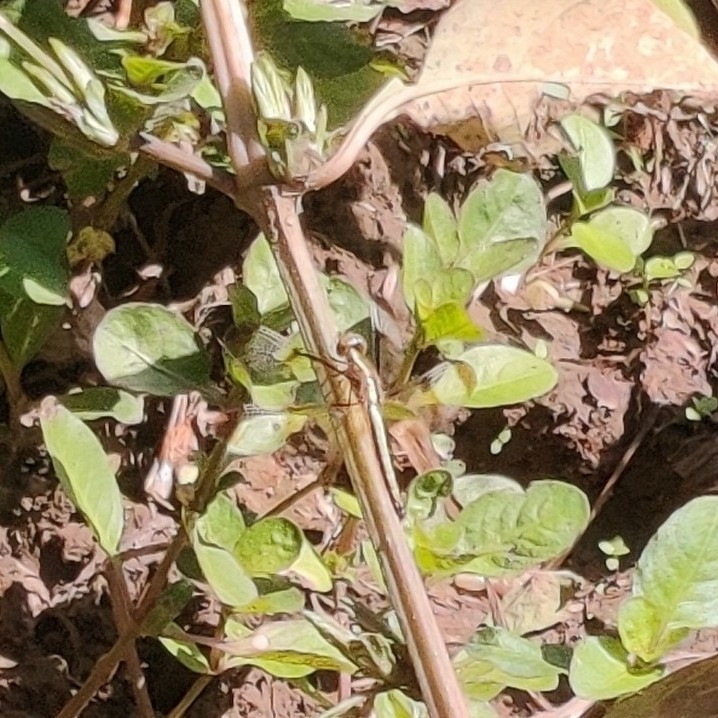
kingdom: Animalia
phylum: Arthropoda
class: Insecta
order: Odonata
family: Libellulidae
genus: Neurothemis
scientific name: Neurothemis tullia
